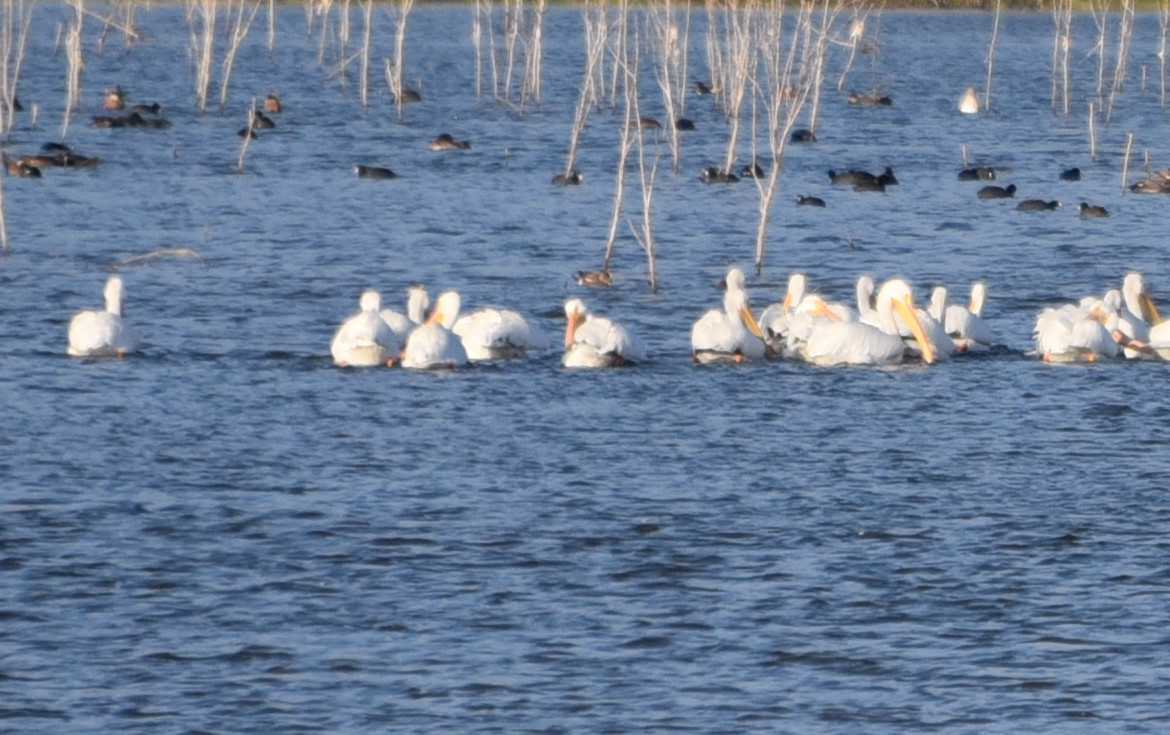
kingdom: Animalia
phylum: Chordata
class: Aves
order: Pelecaniformes
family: Pelecanidae
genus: Pelecanus
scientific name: Pelecanus erythrorhynchos
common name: American white pelican
